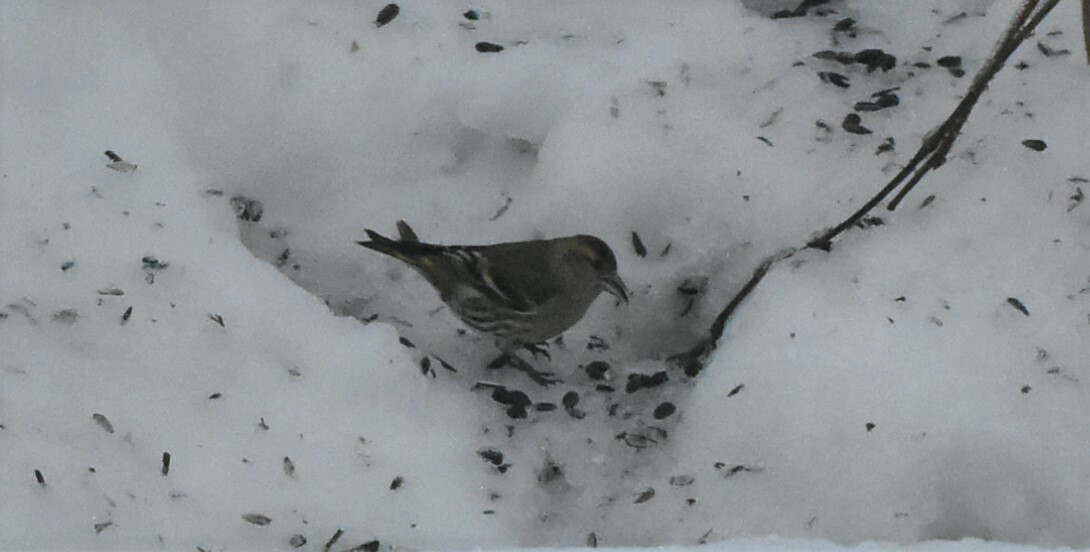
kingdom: Animalia
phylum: Chordata
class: Aves
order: Passeriformes
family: Fringillidae
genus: Spinus
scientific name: Spinus spinus
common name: Eurasian siskin
